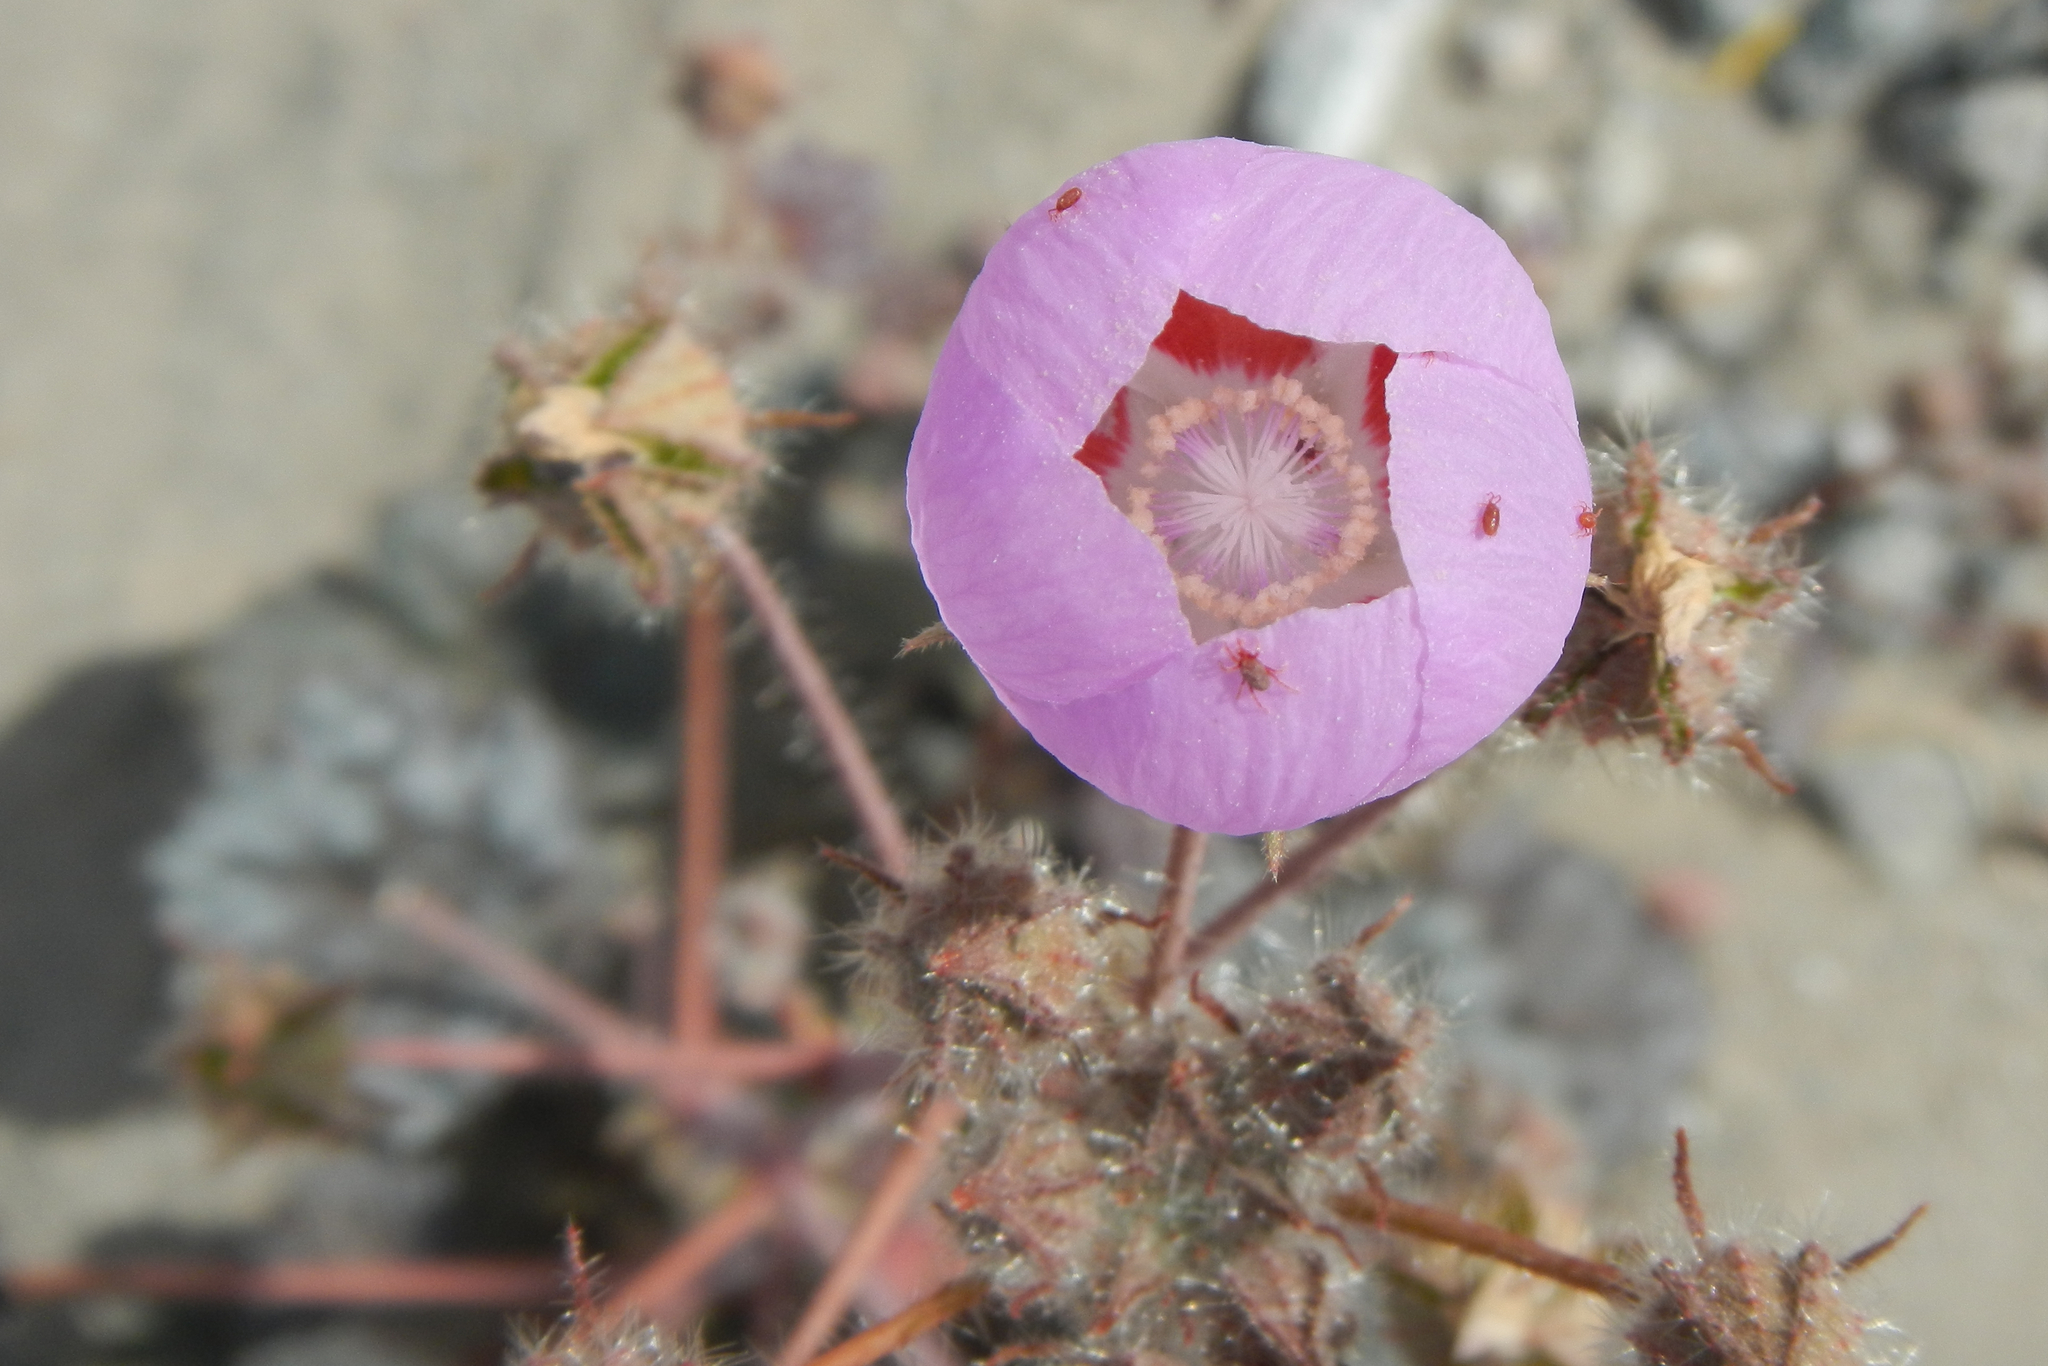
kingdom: Plantae
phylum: Tracheophyta
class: Magnoliopsida
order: Malvales
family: Malvaceae
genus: Eremalche
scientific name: Eremalche rotundifolia
